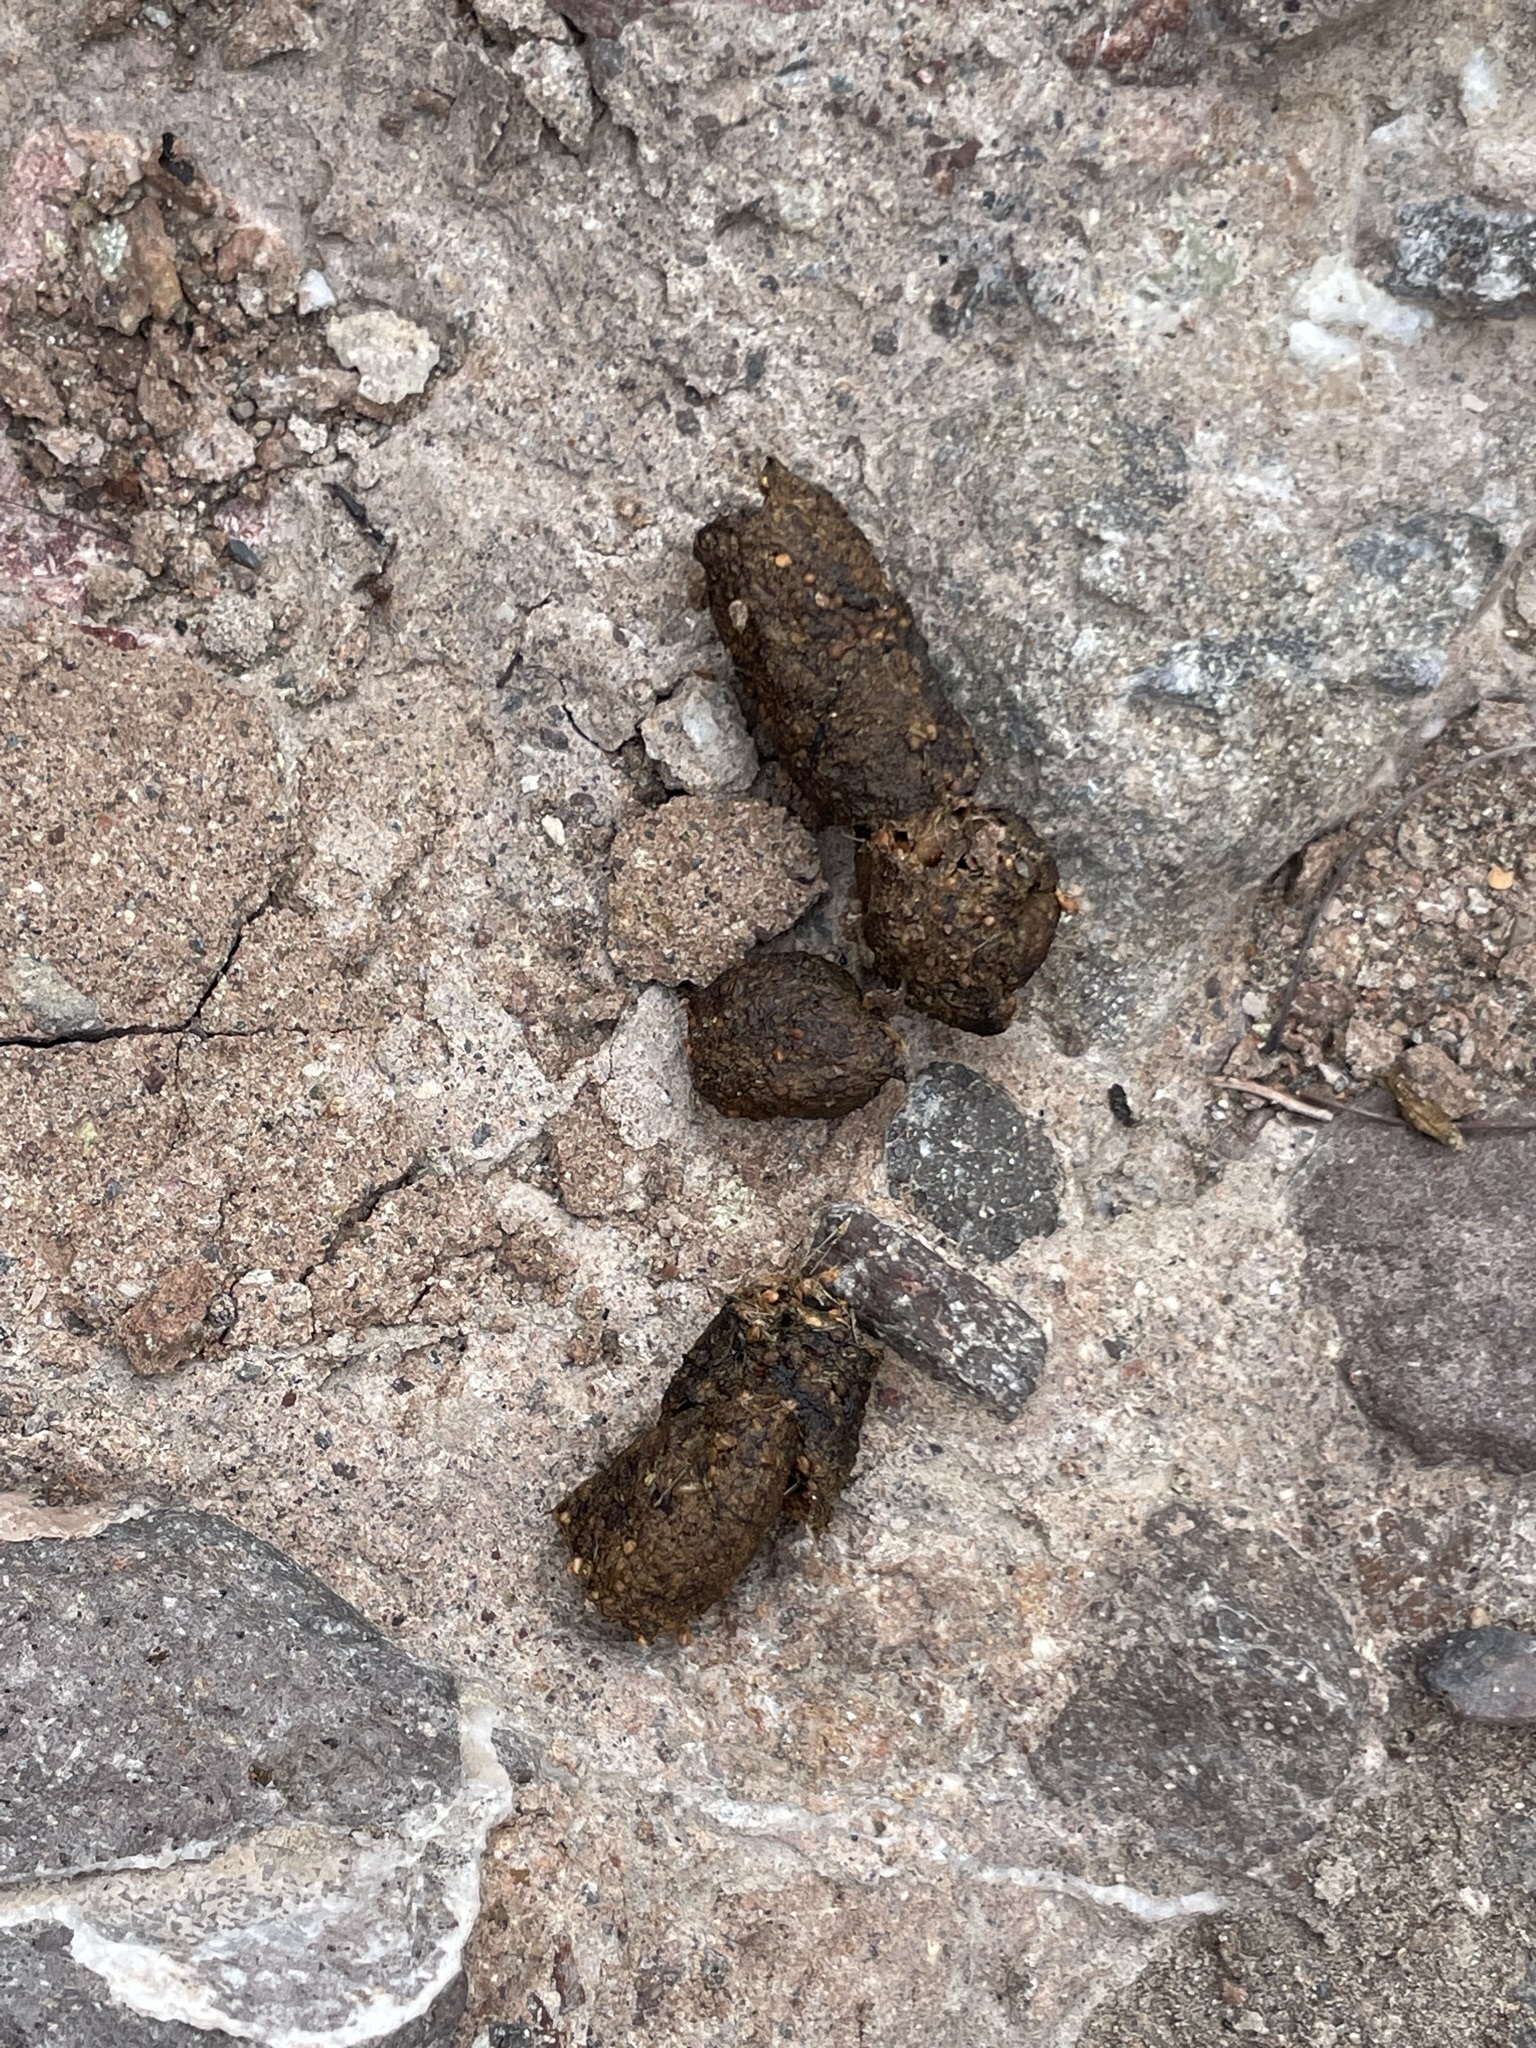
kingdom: Animalia
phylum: Chordata
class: Mammalia
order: Carnivora
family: Canidae
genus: Urocyon
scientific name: Urocyon cinereoargenteus
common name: Gray fox
